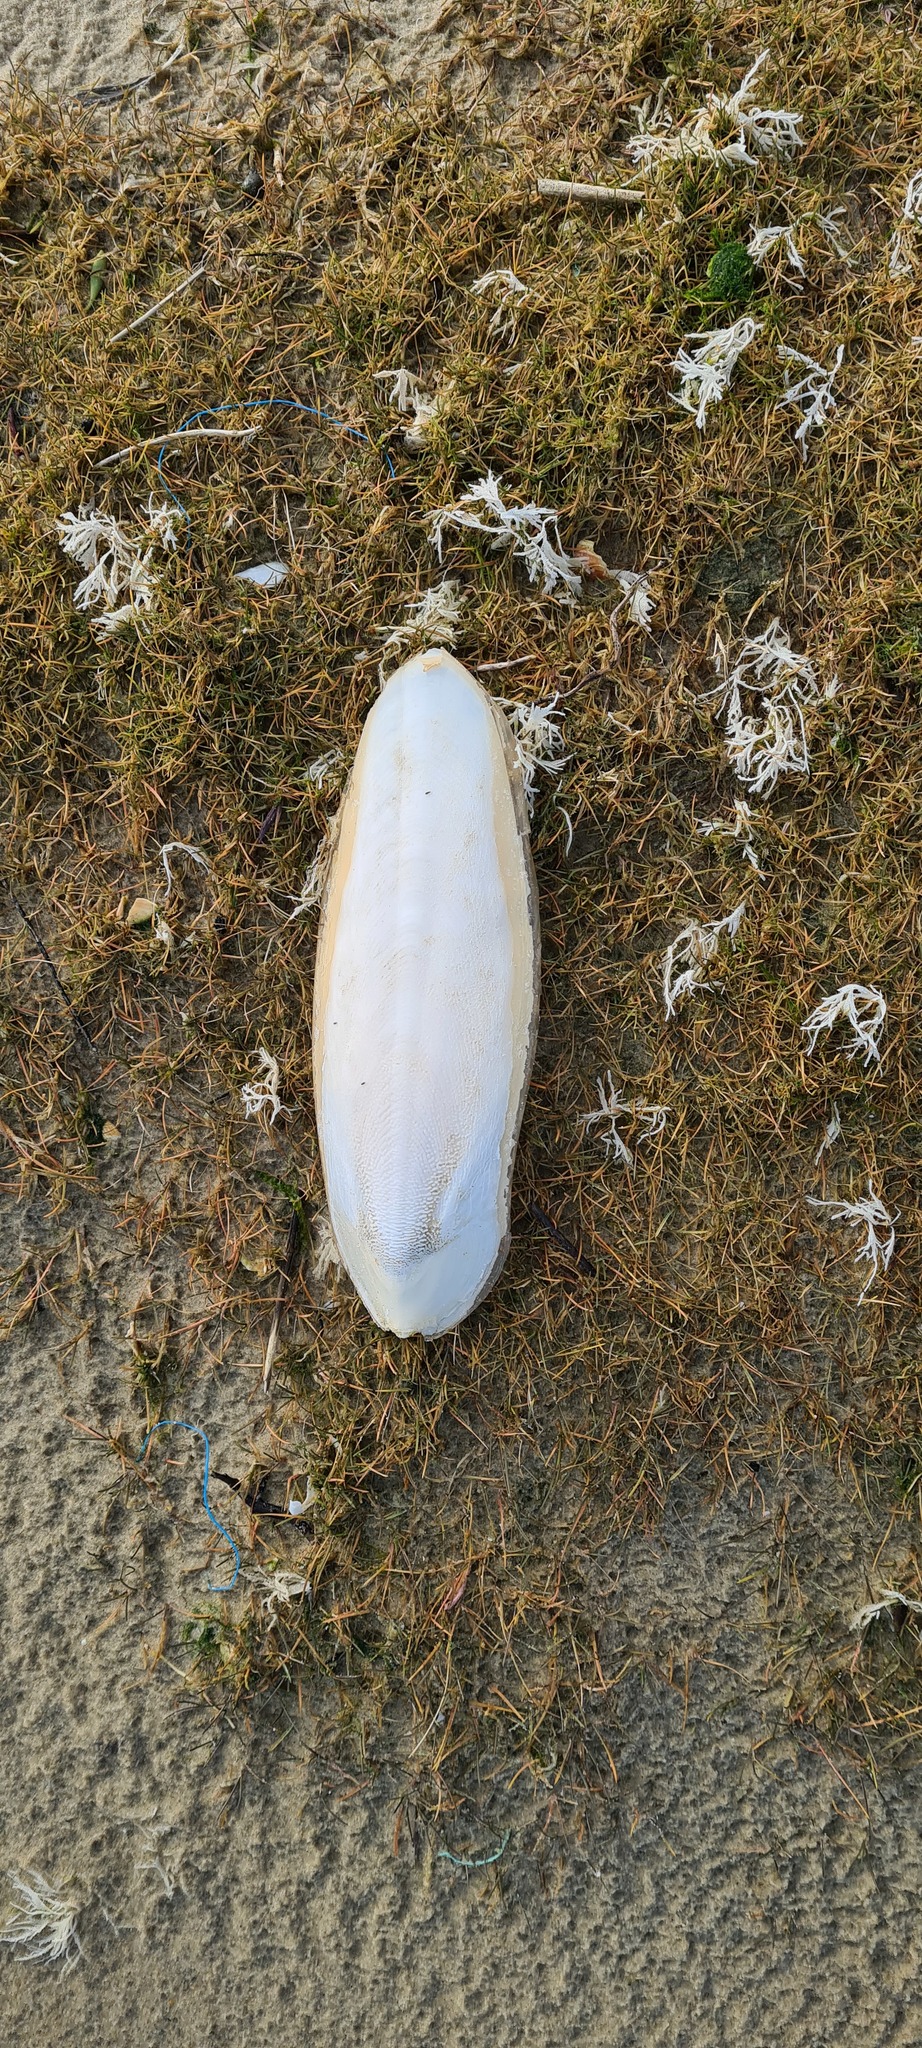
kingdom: Animalia
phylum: Mollusca
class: Cephalopoda
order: Sepiida
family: Sepiidae
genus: Sepia
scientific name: Sepia officinalis
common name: Common cuttlefish
